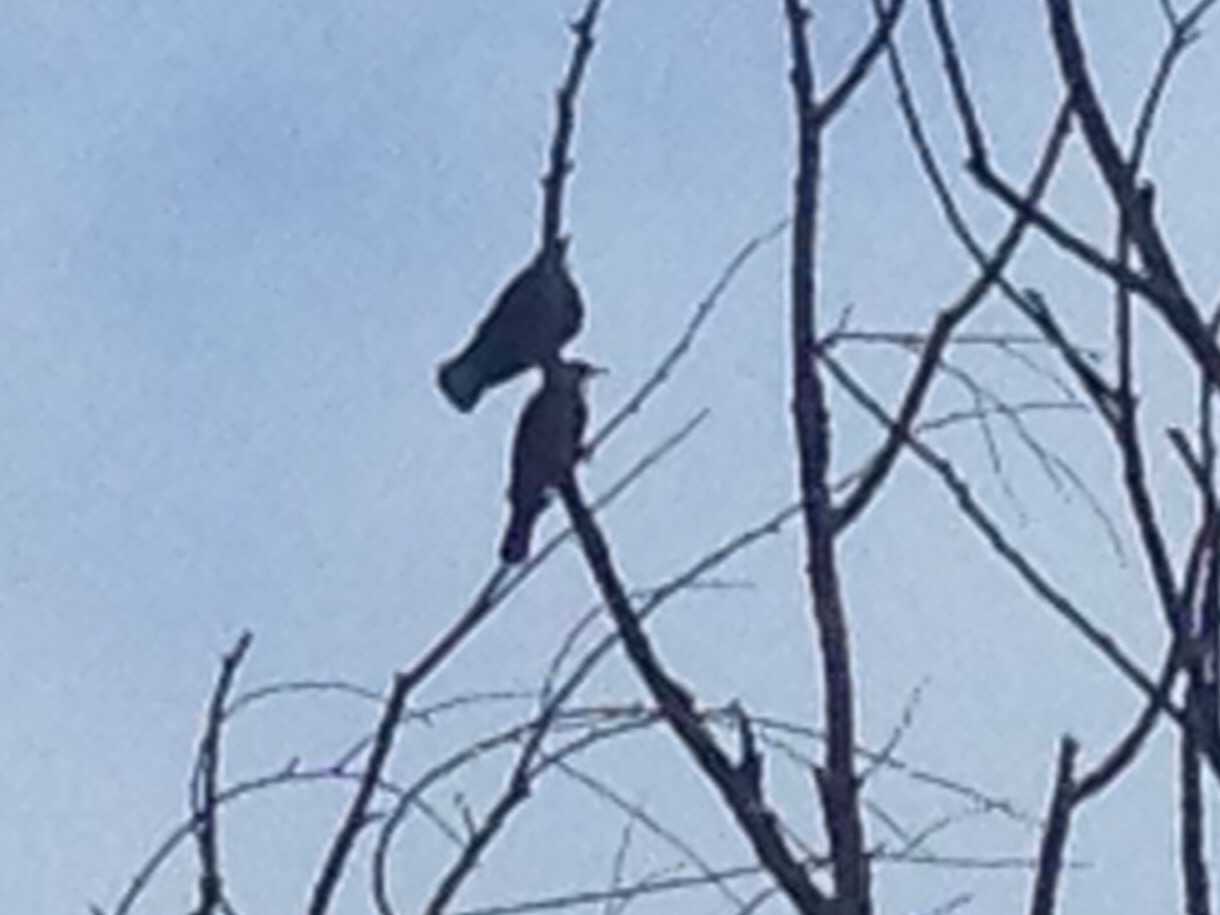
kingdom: Animalia
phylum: Chordata
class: Aves
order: Passeriformes
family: Meliphagidae
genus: Prosthemadera
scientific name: Prosthemadera novaeseelandiae
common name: Tui
